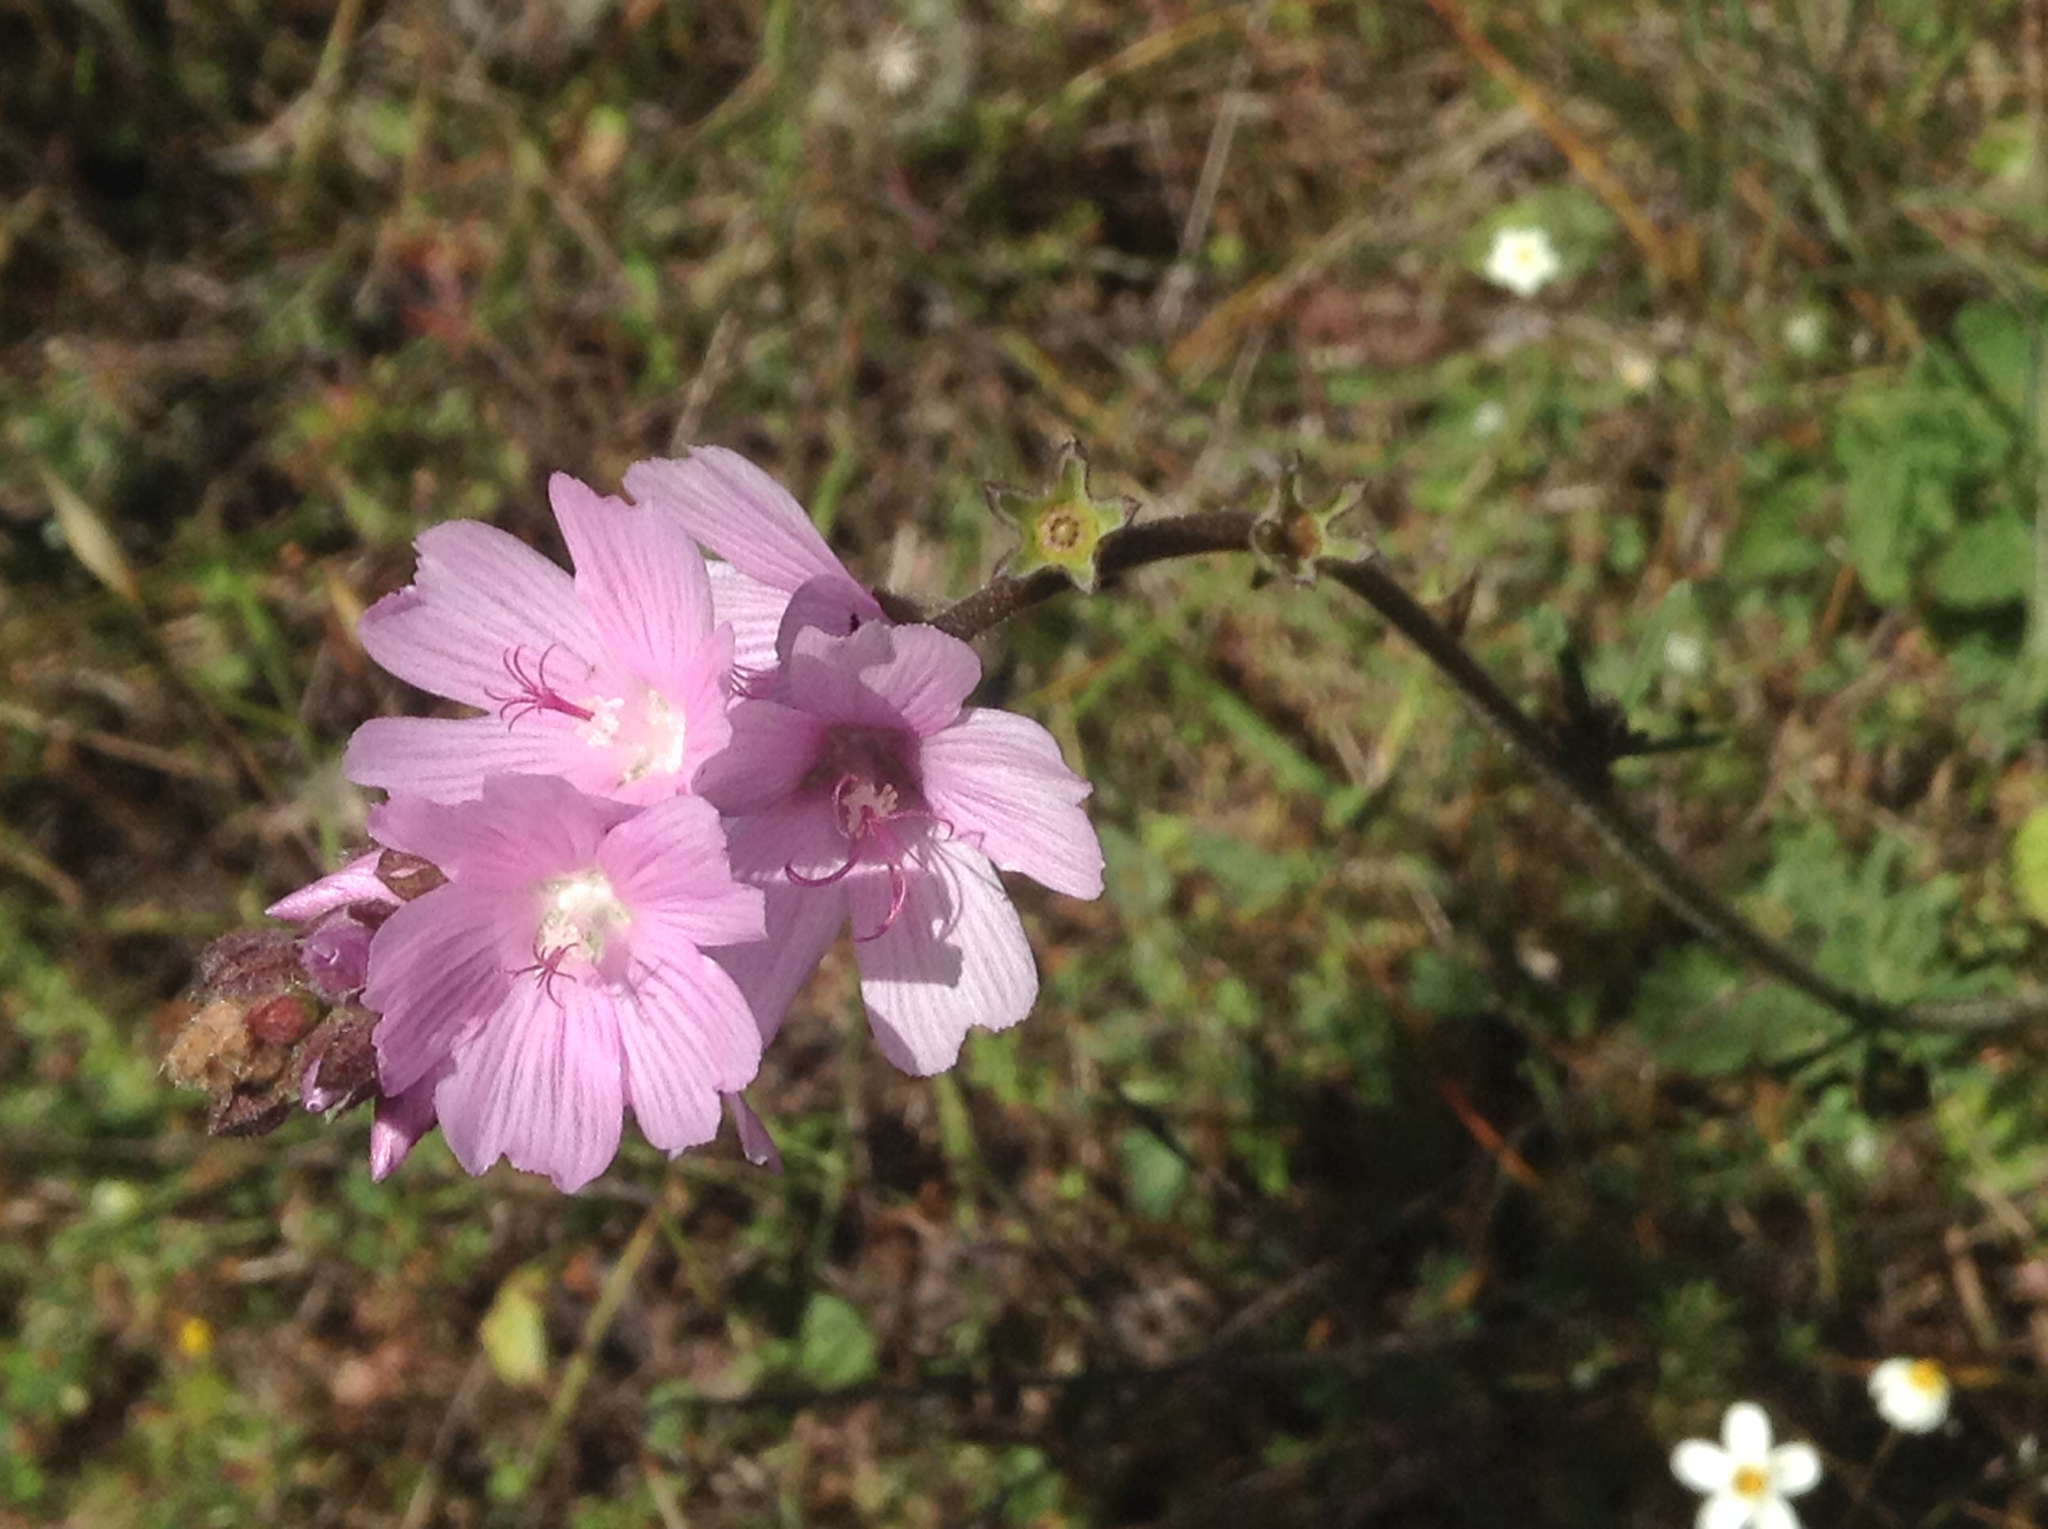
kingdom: Plantae
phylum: Tracheophyta
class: Magnoliopsida
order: Malvales
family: Malvaceae
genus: Sidalcea
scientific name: Sidalcea malviflora
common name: Greek mallow
